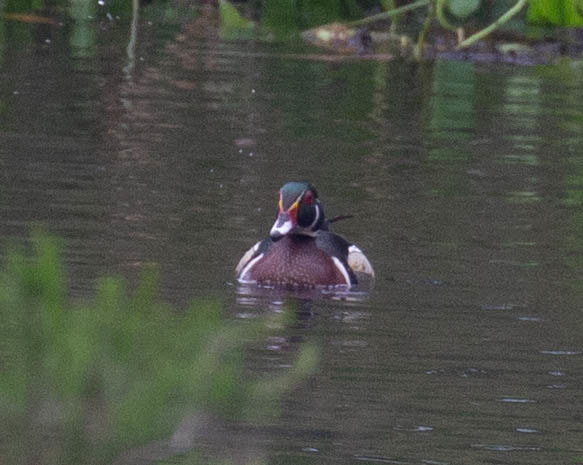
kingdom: Animalia
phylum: Chordata
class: Aves
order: Anseriformes
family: Anatidae
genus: Aix
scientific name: Aix sponsa
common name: Wood duck
